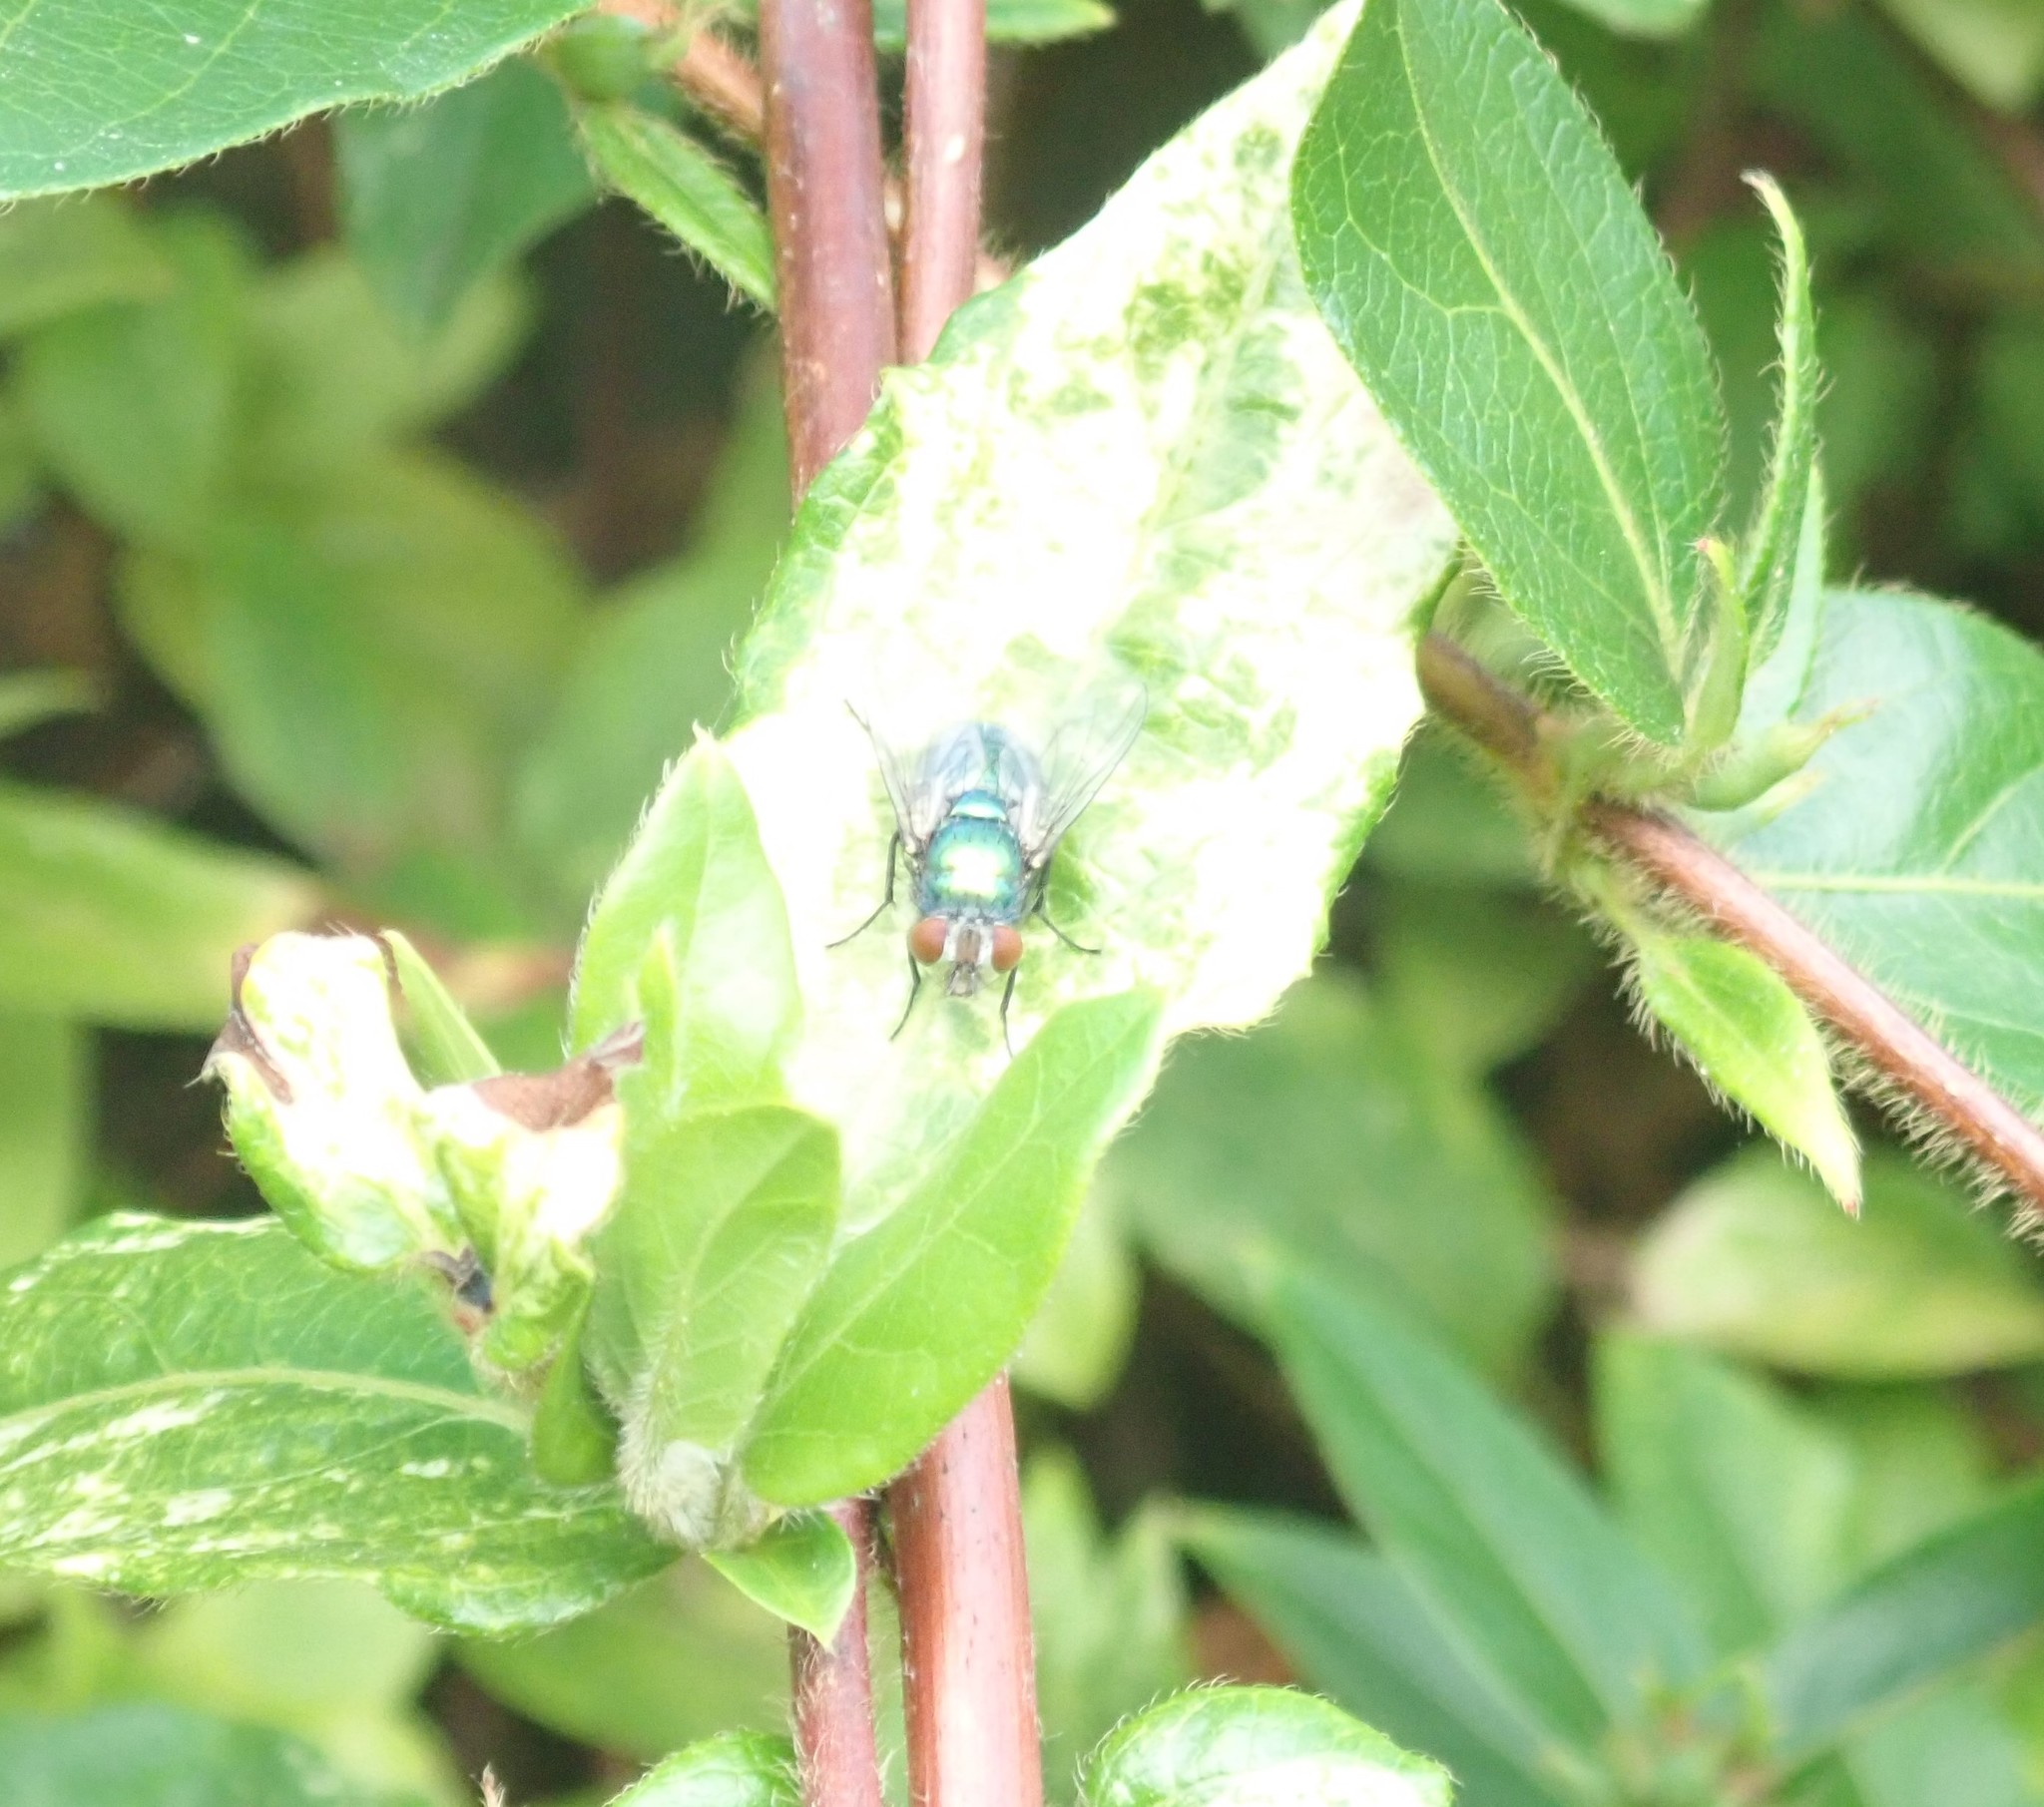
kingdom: Animalia
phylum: Arthropoda
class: Insecta
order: Diptera
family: Calliphoridae
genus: Lucilia
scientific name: Lucilia
